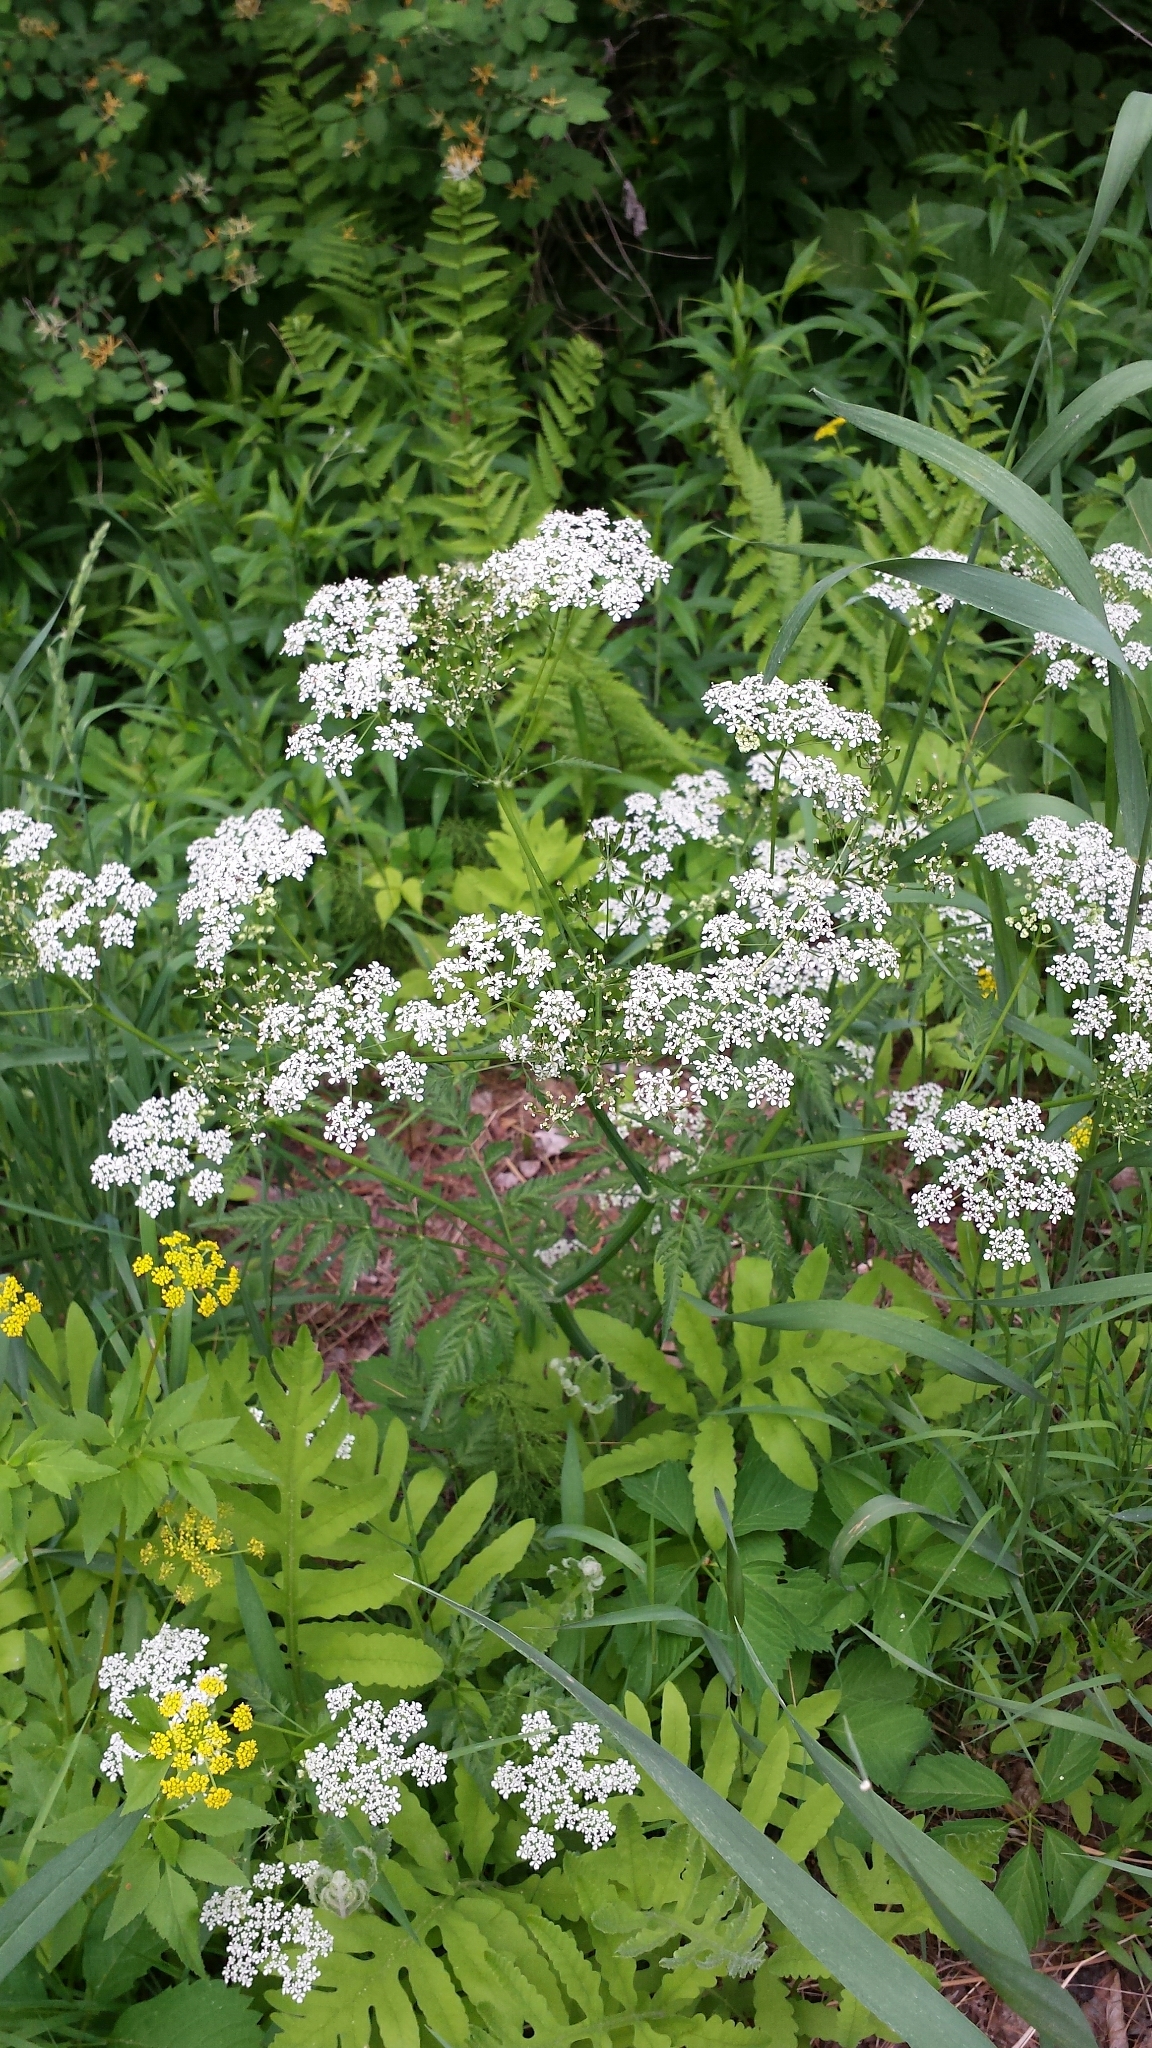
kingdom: Plantae
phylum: Tracheophyta
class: Magnoliopsida
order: Apiales
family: Apiaceae
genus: Anthriscus
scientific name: Anthriscus sylvestris
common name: Cow parsley
